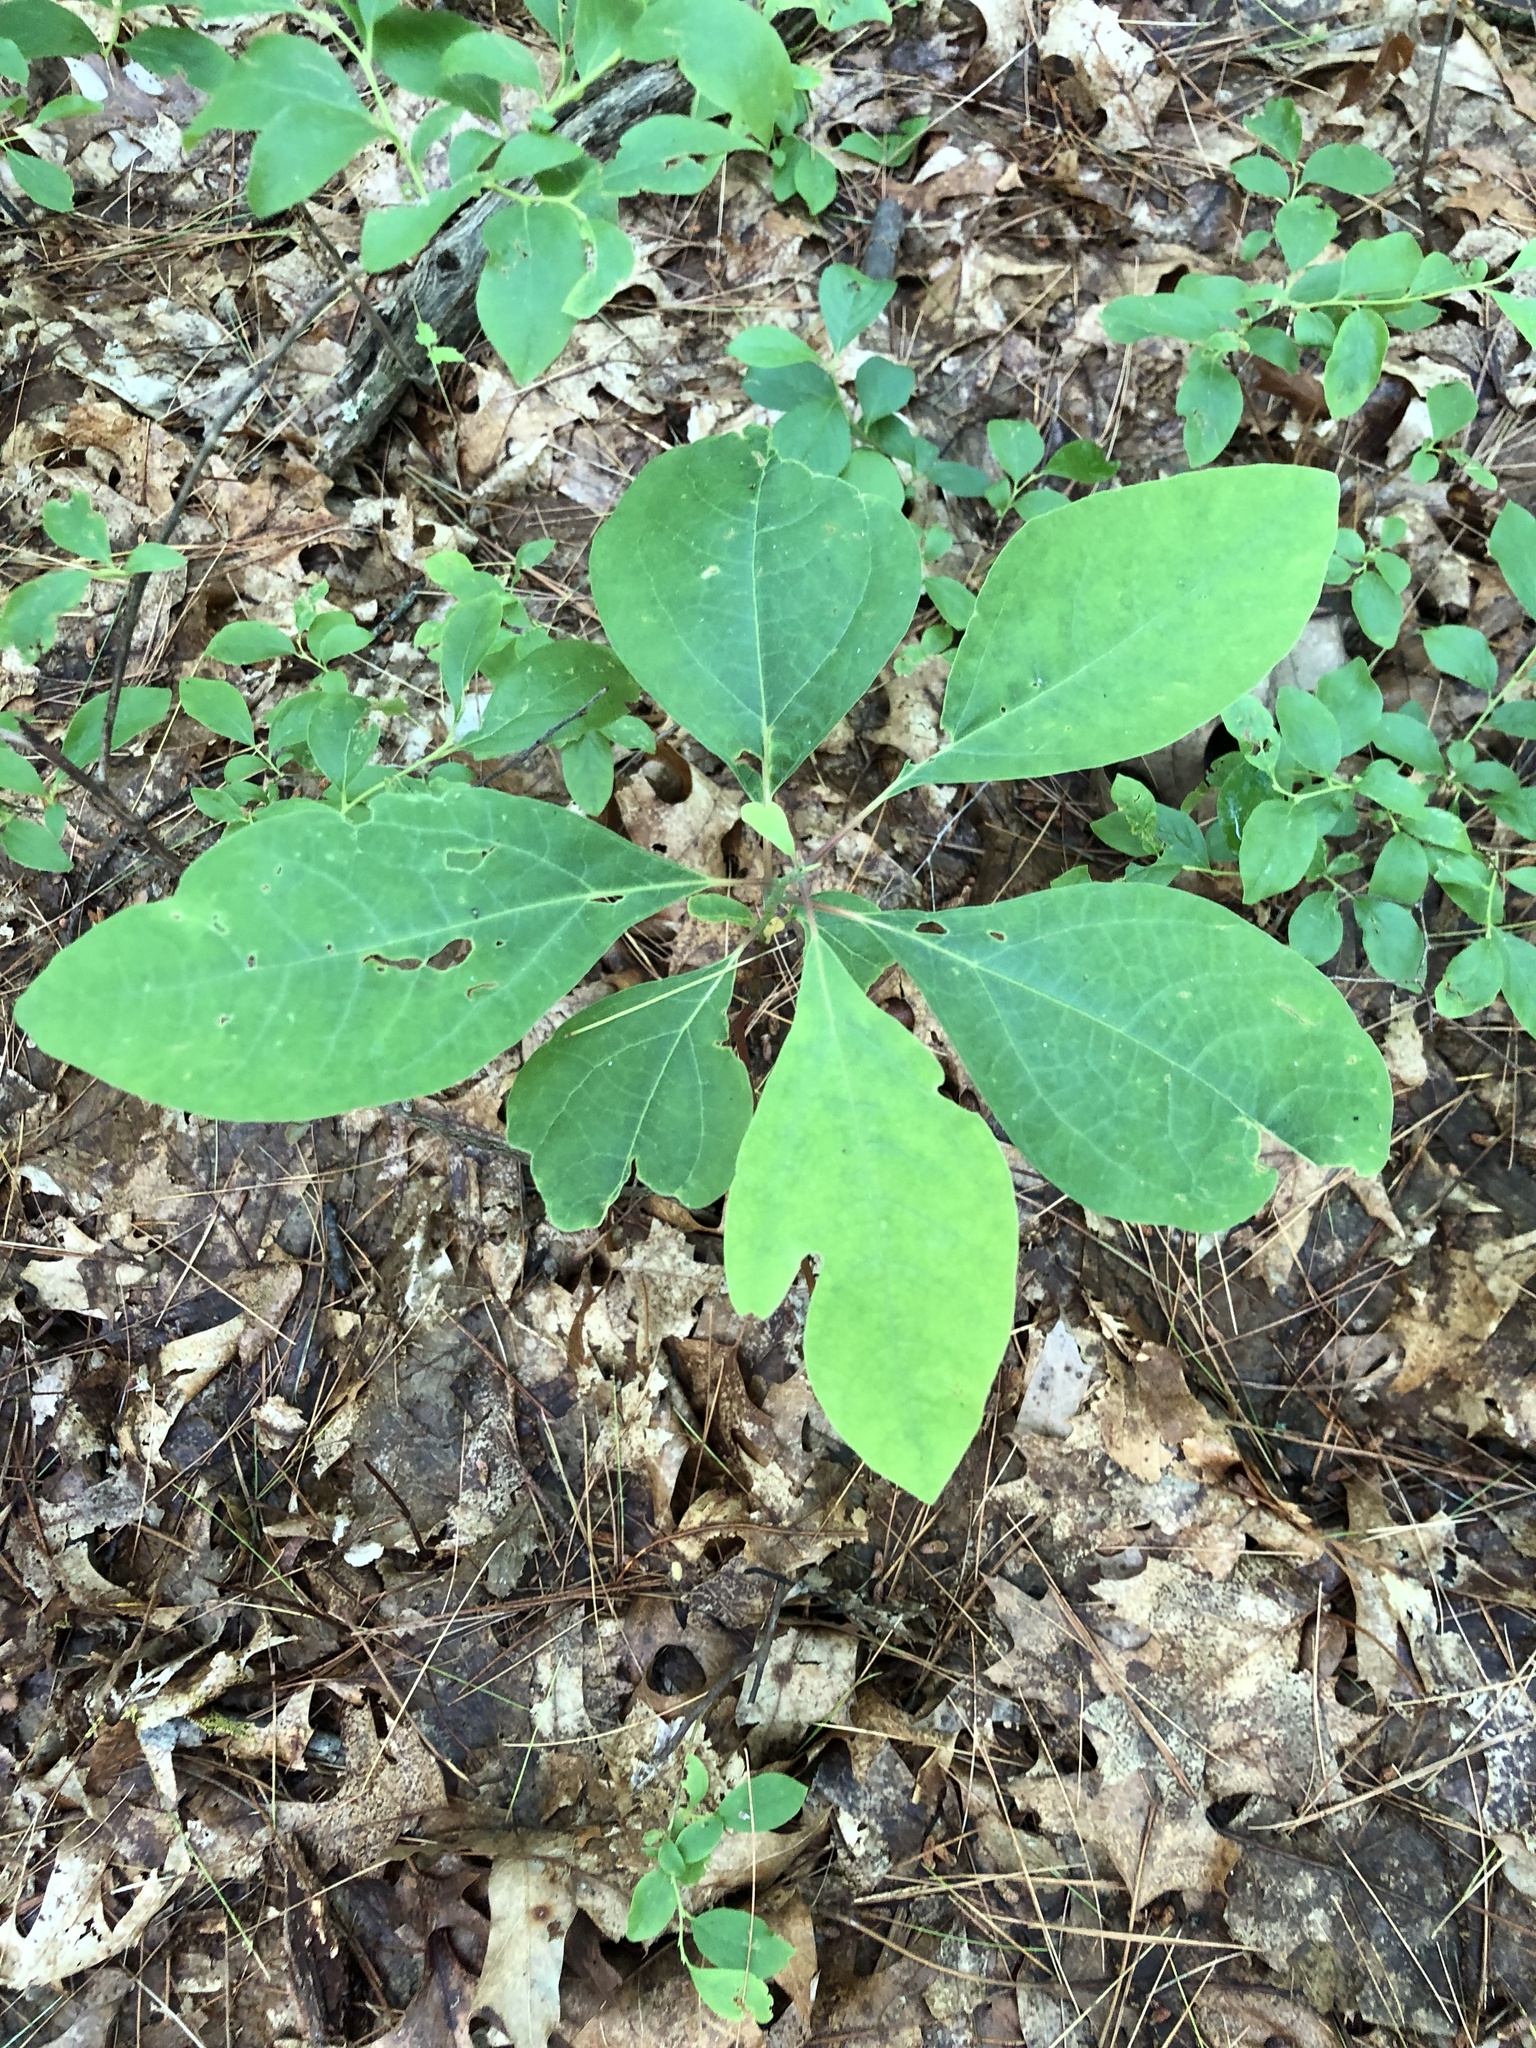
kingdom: Plantae
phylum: Tracheophyta
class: Magnoliopsida
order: Laurales
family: Lauraceae
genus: Sassafras
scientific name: Sassafras albidum
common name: Sassafras
